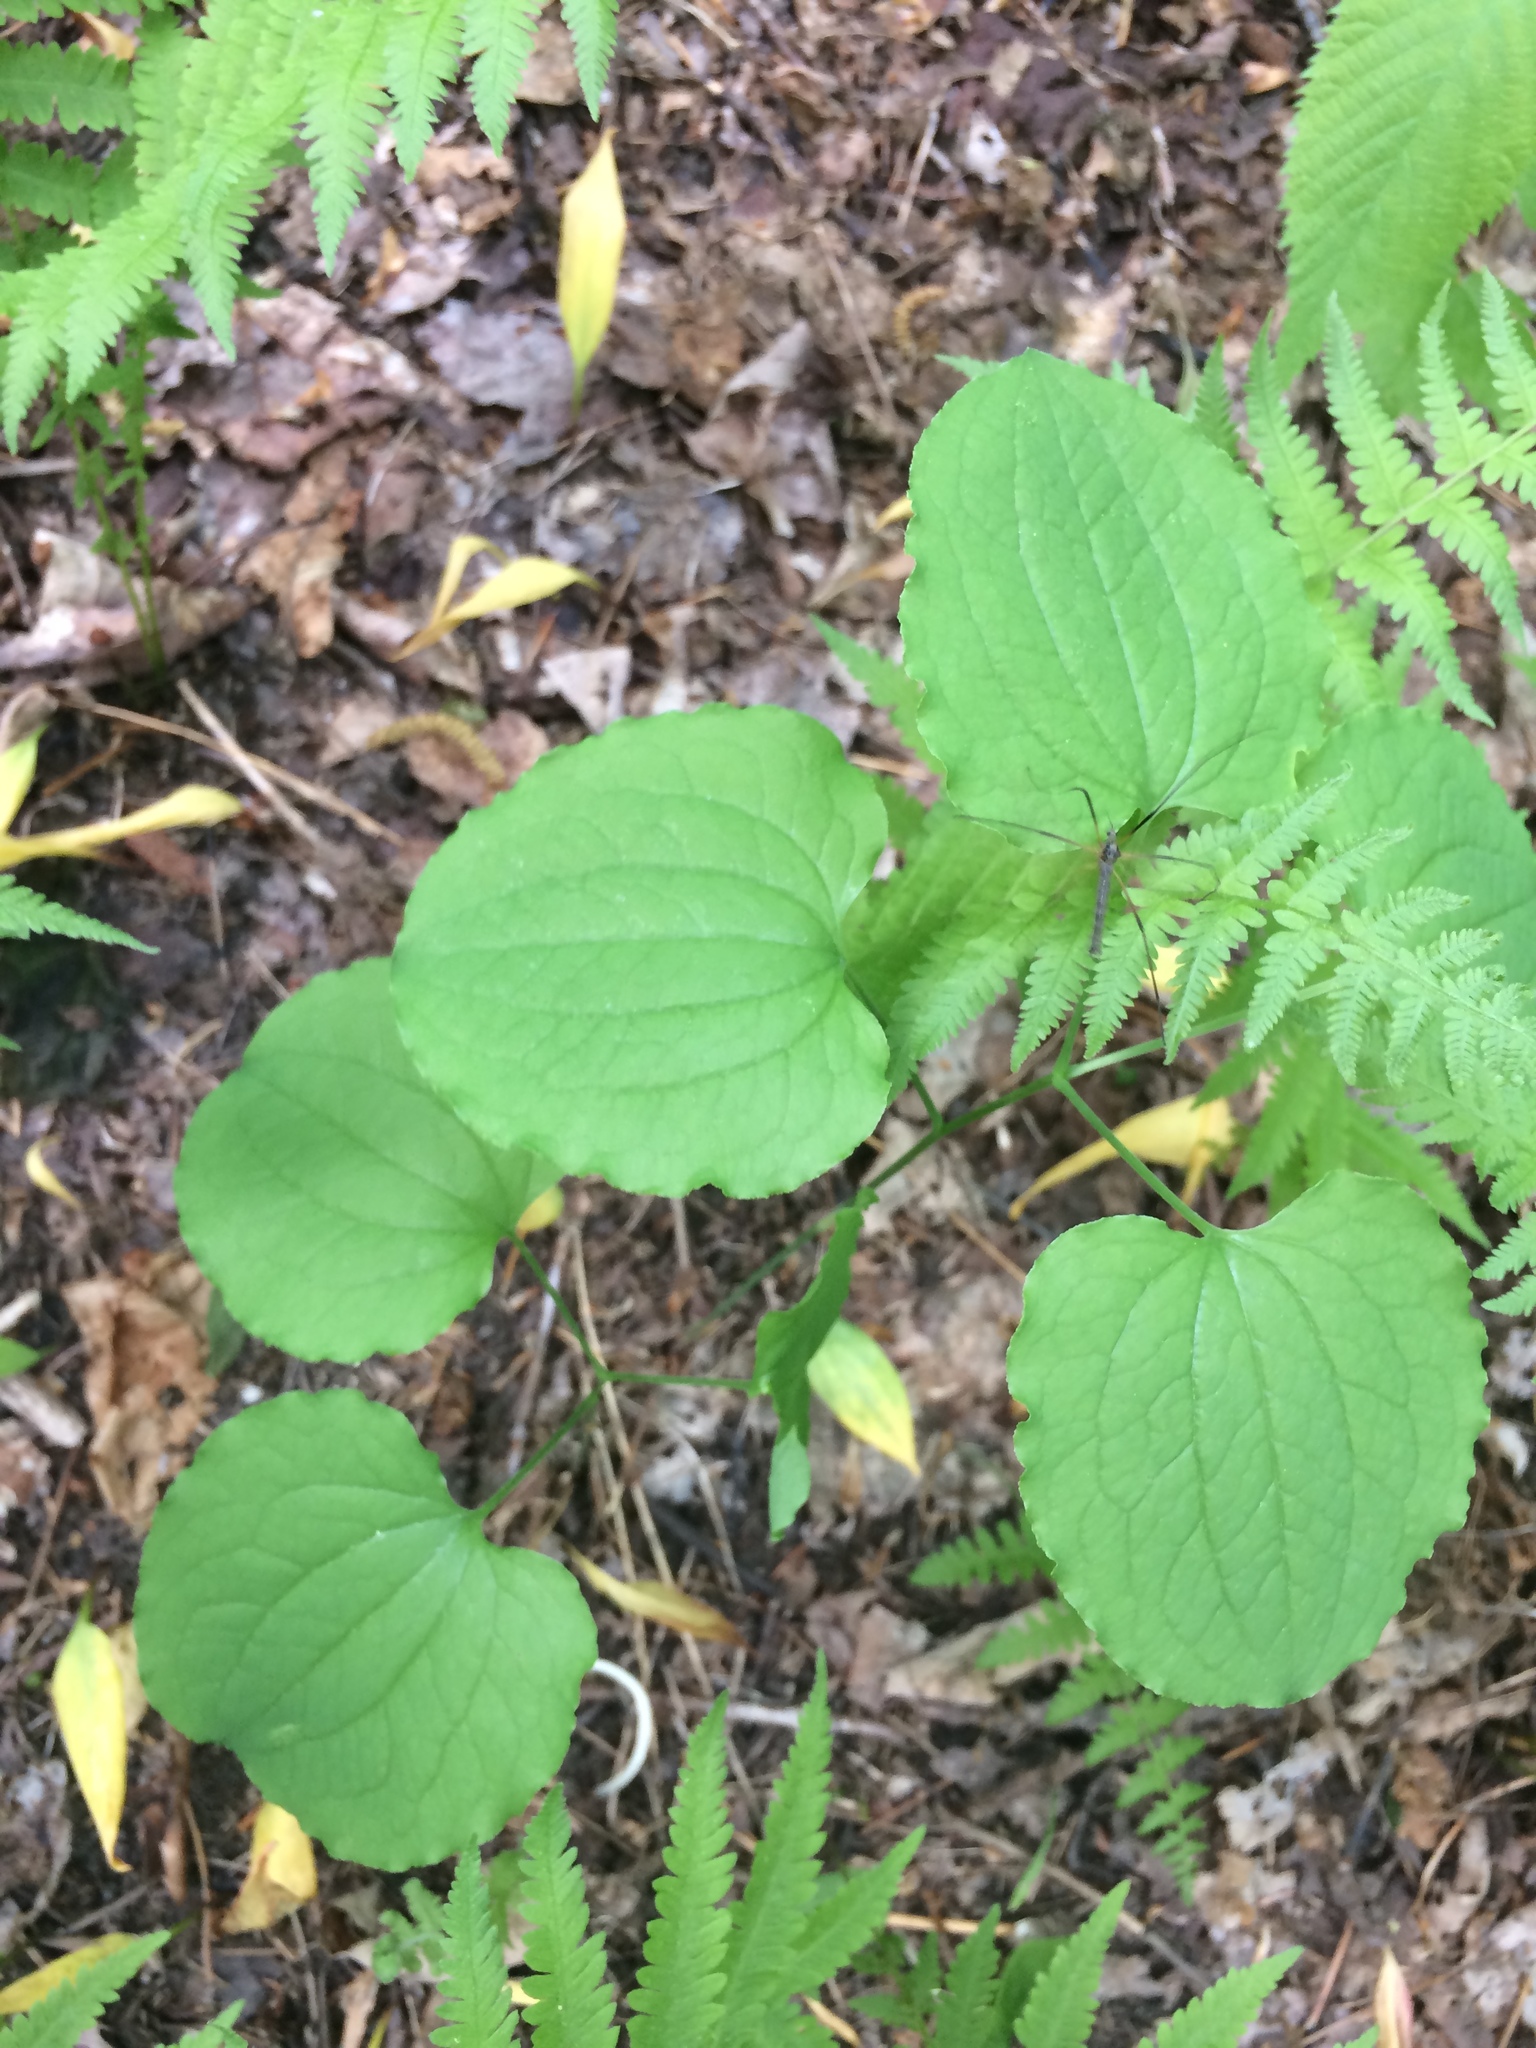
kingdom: Plantae
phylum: Tracheophyta
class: Liliopsida
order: Liliales
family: Smilacaceae
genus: Smilax
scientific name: Smilax herbacea
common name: Jacob's-ladder
